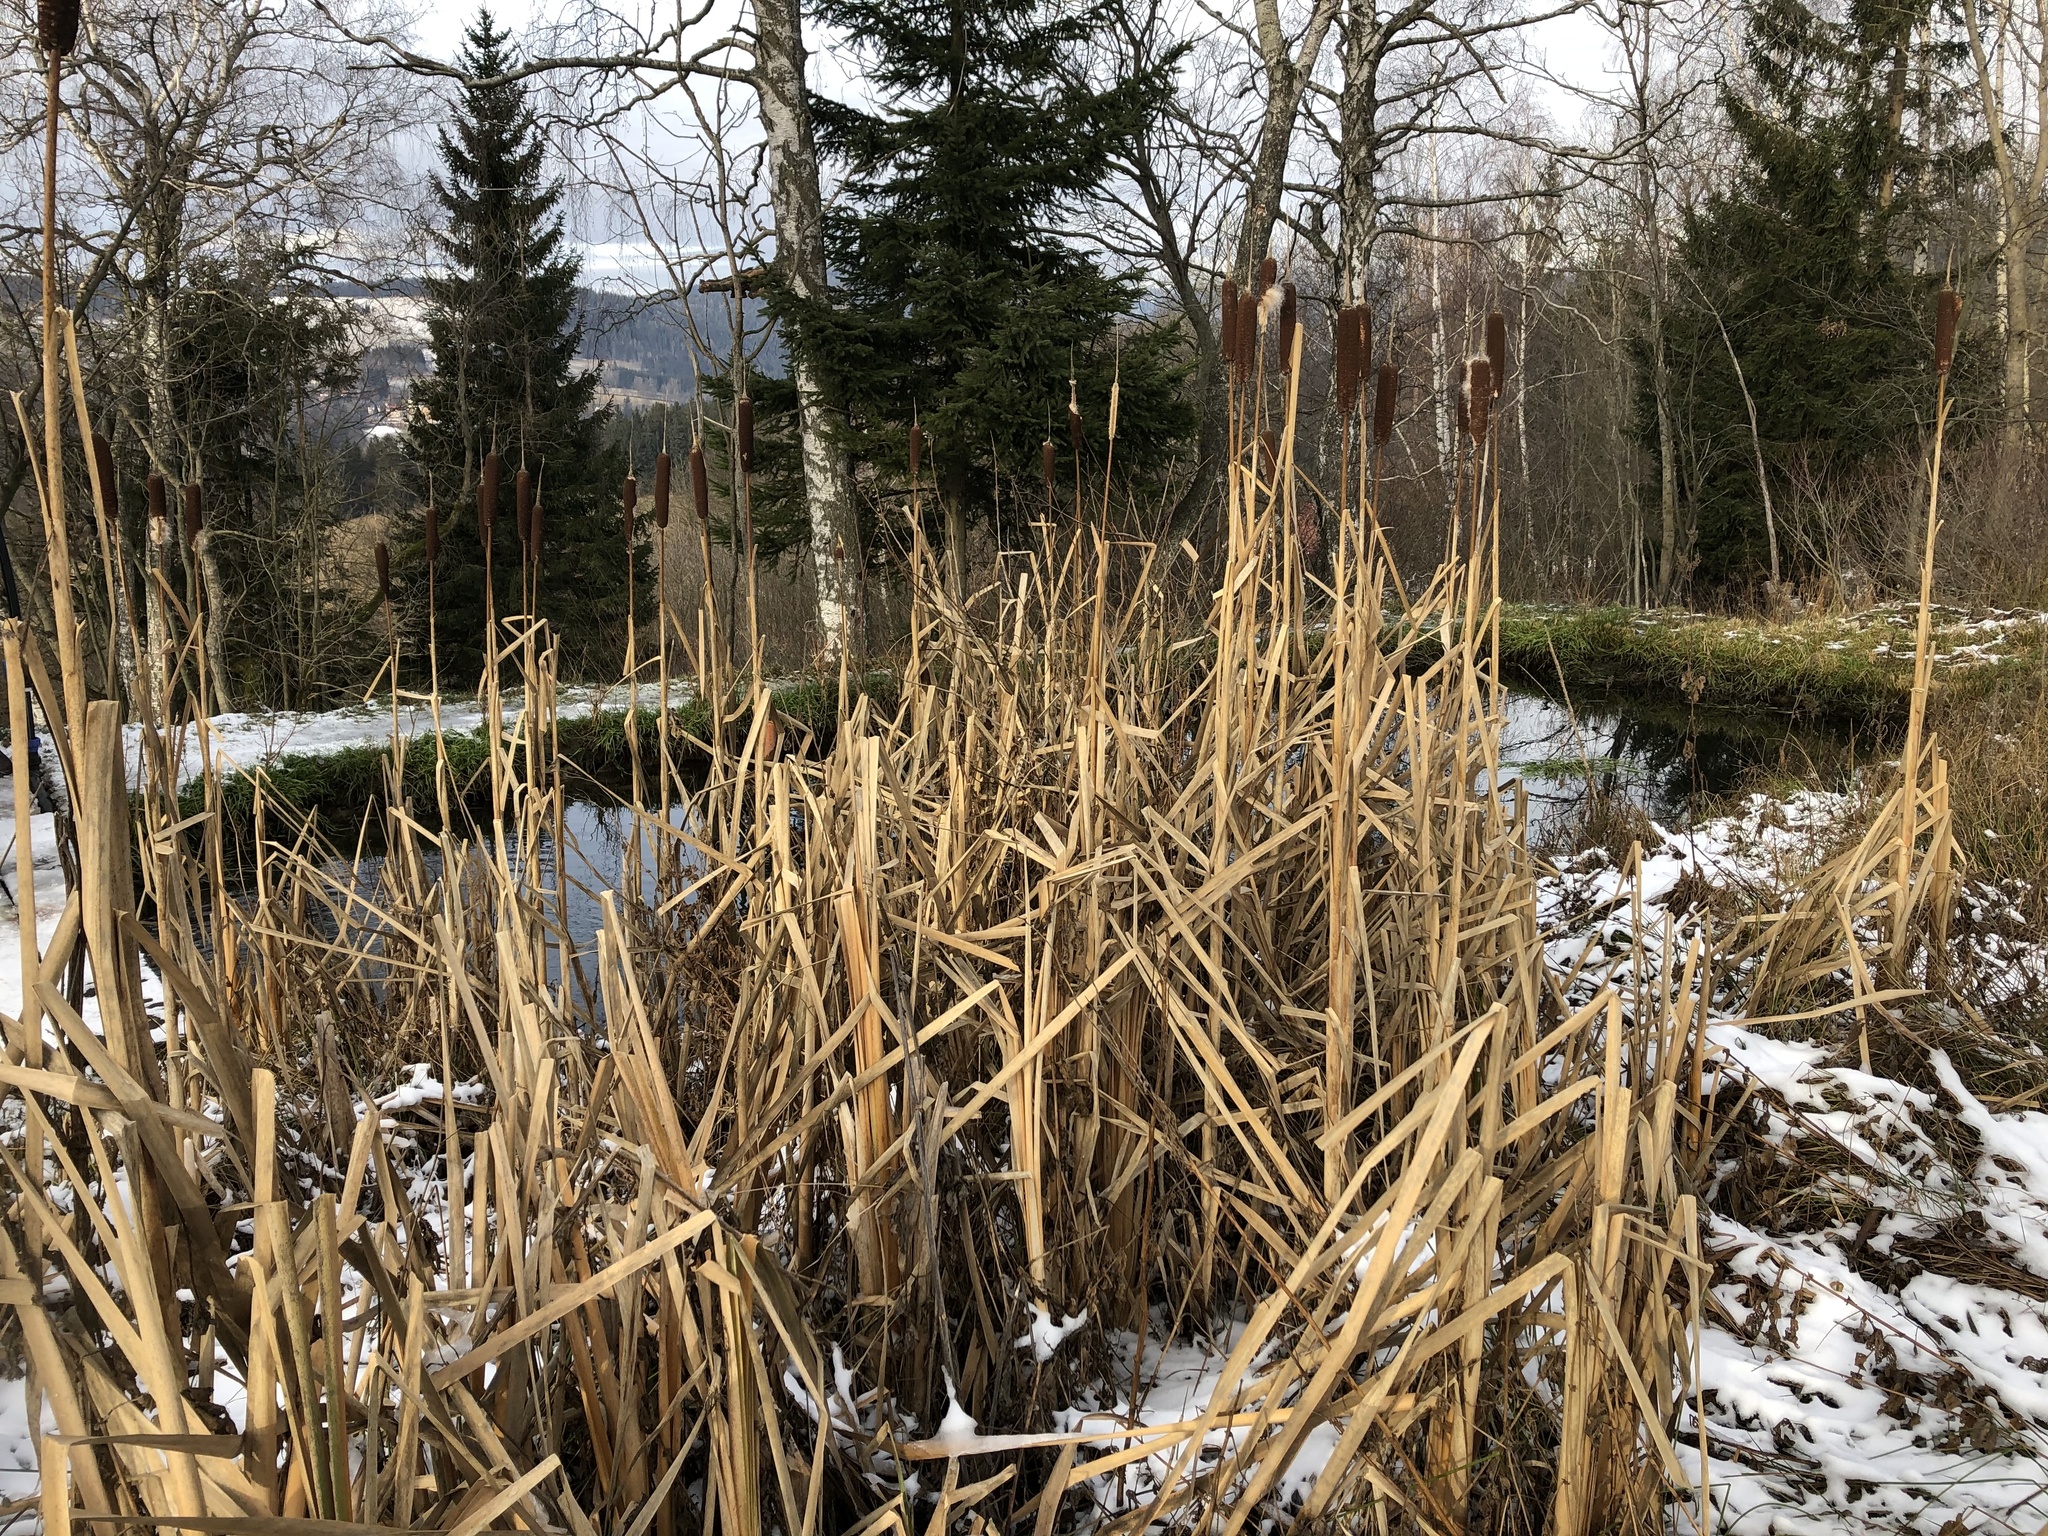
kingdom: Plantae
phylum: Tracheophyta
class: Liliopsida
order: Poales
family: Typhaceae
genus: Typha
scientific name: Typha latifolia
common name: Broadleaf cattail
